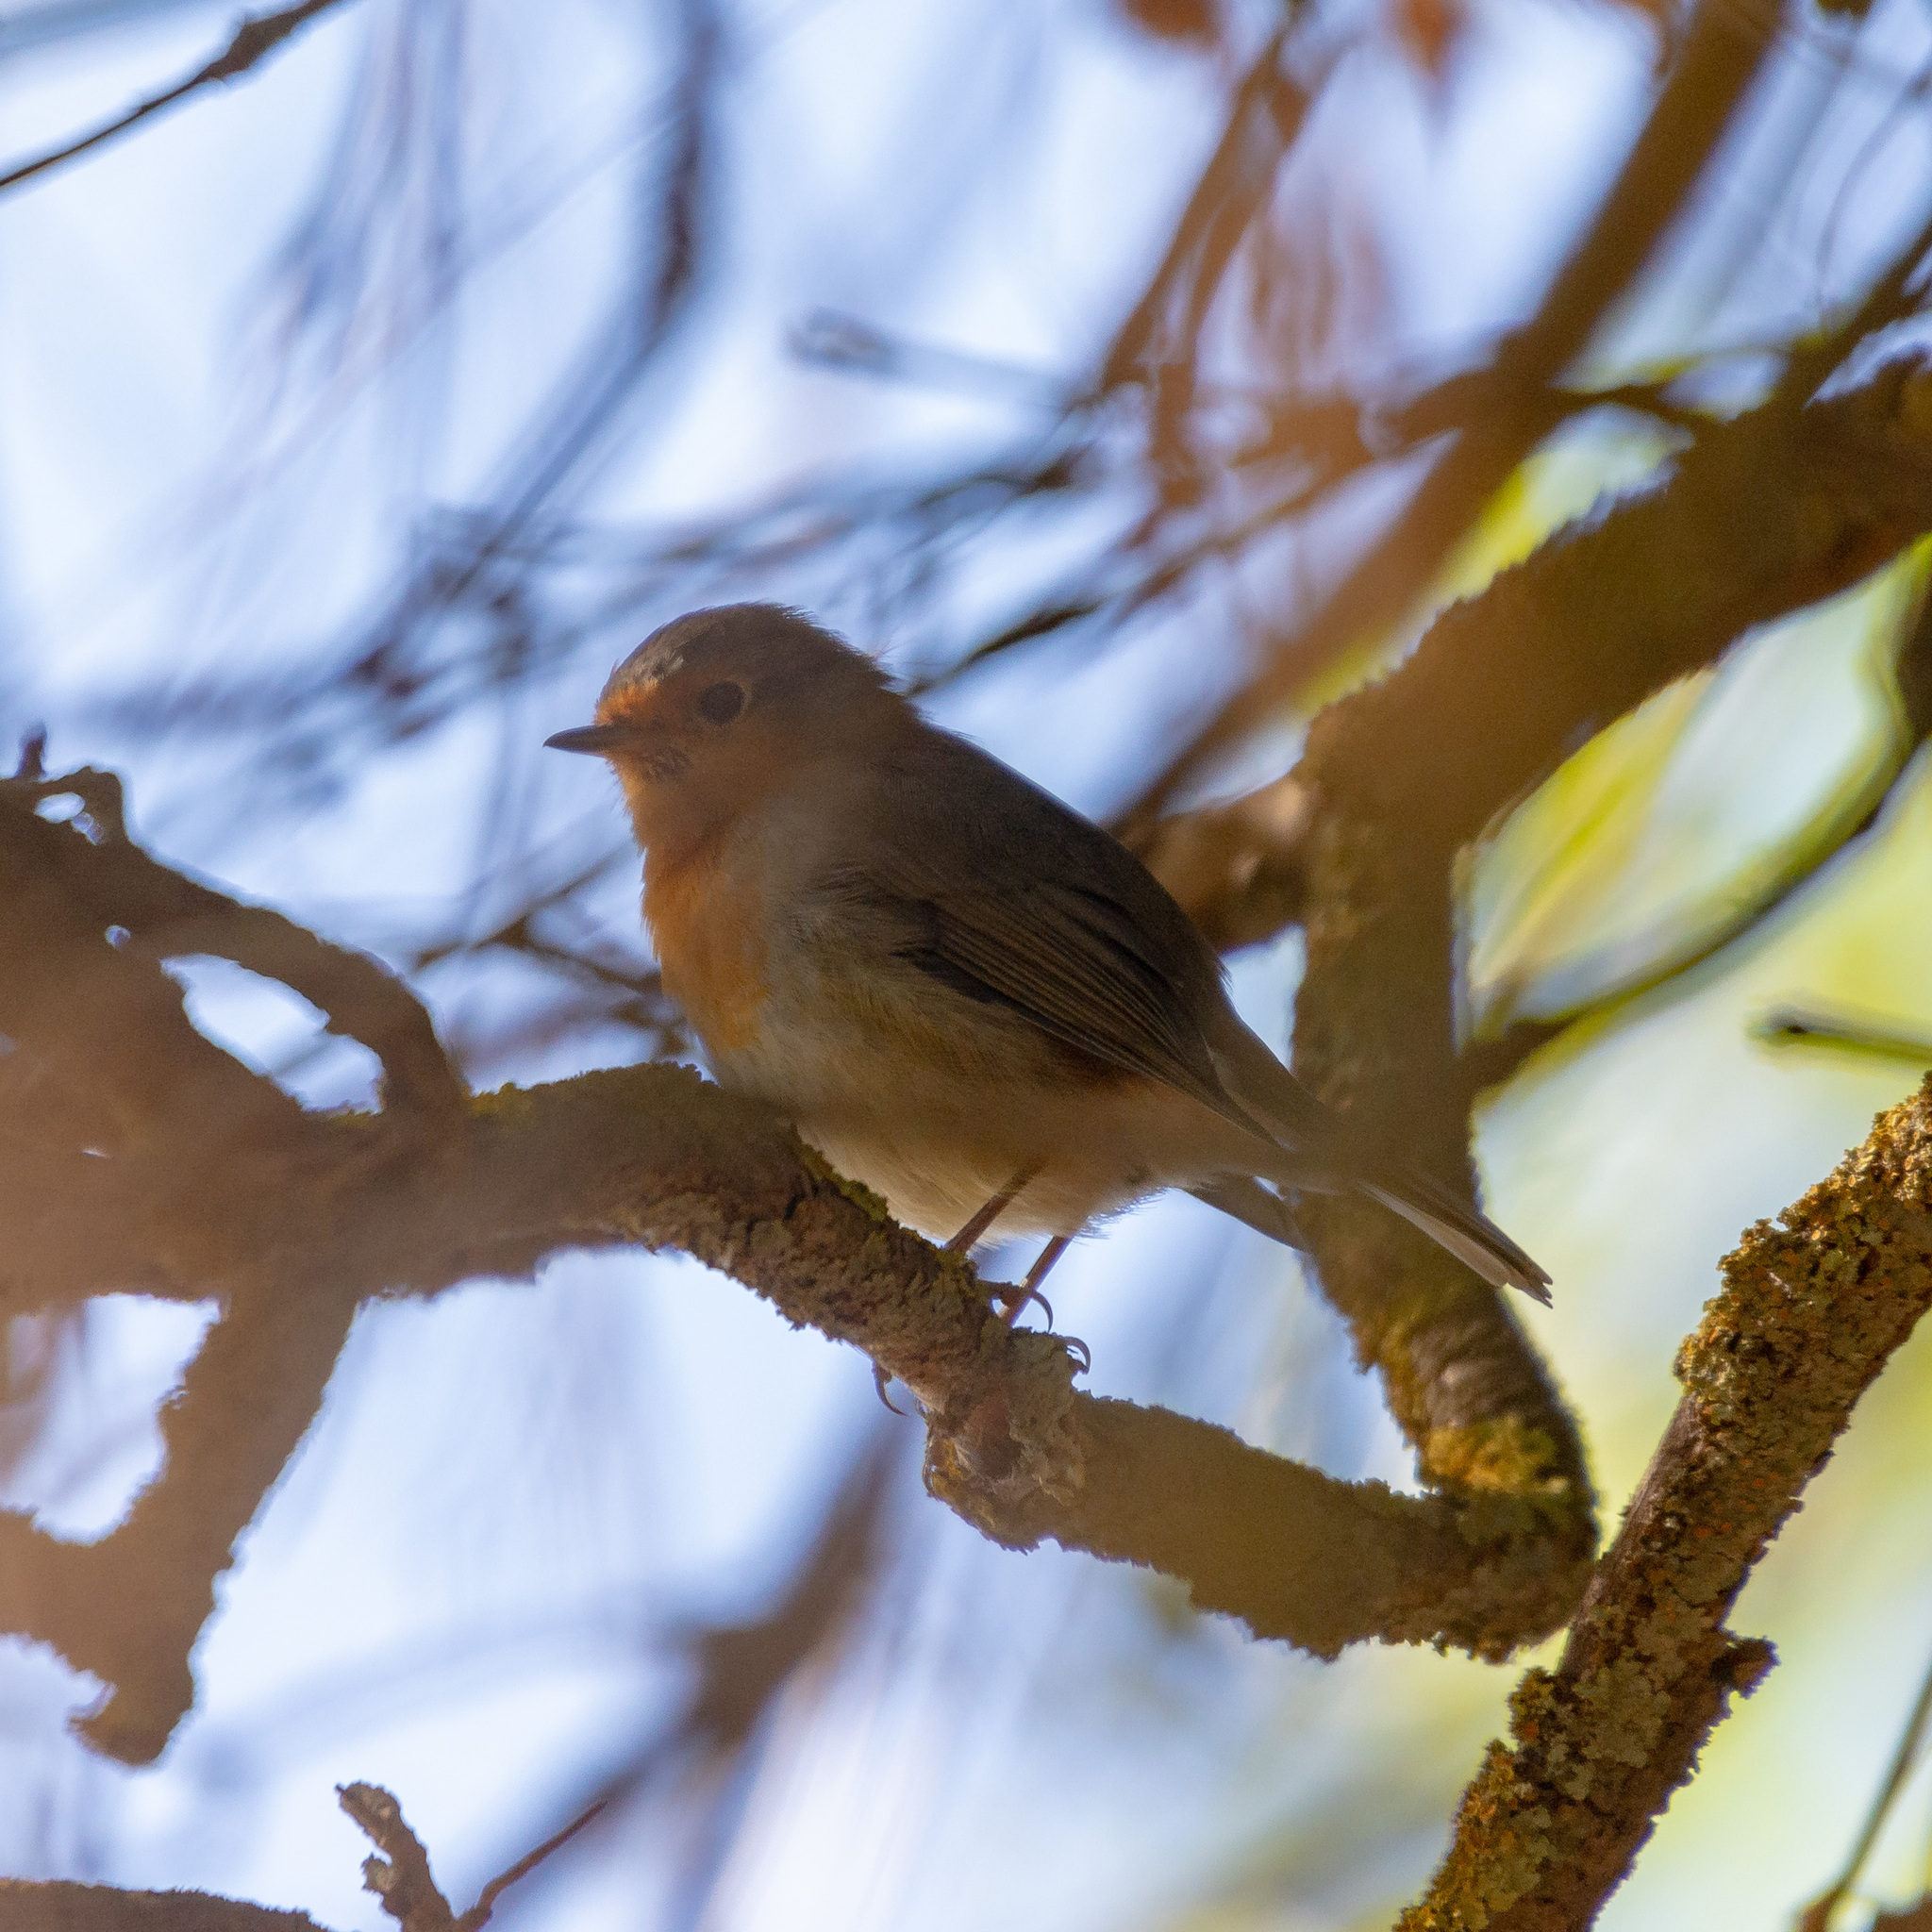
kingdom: Animalia
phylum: Chordata
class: Aves
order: Passeriformes
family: Muscicapidae
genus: Erithacus
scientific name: Erithacus rubecula
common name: European robin
